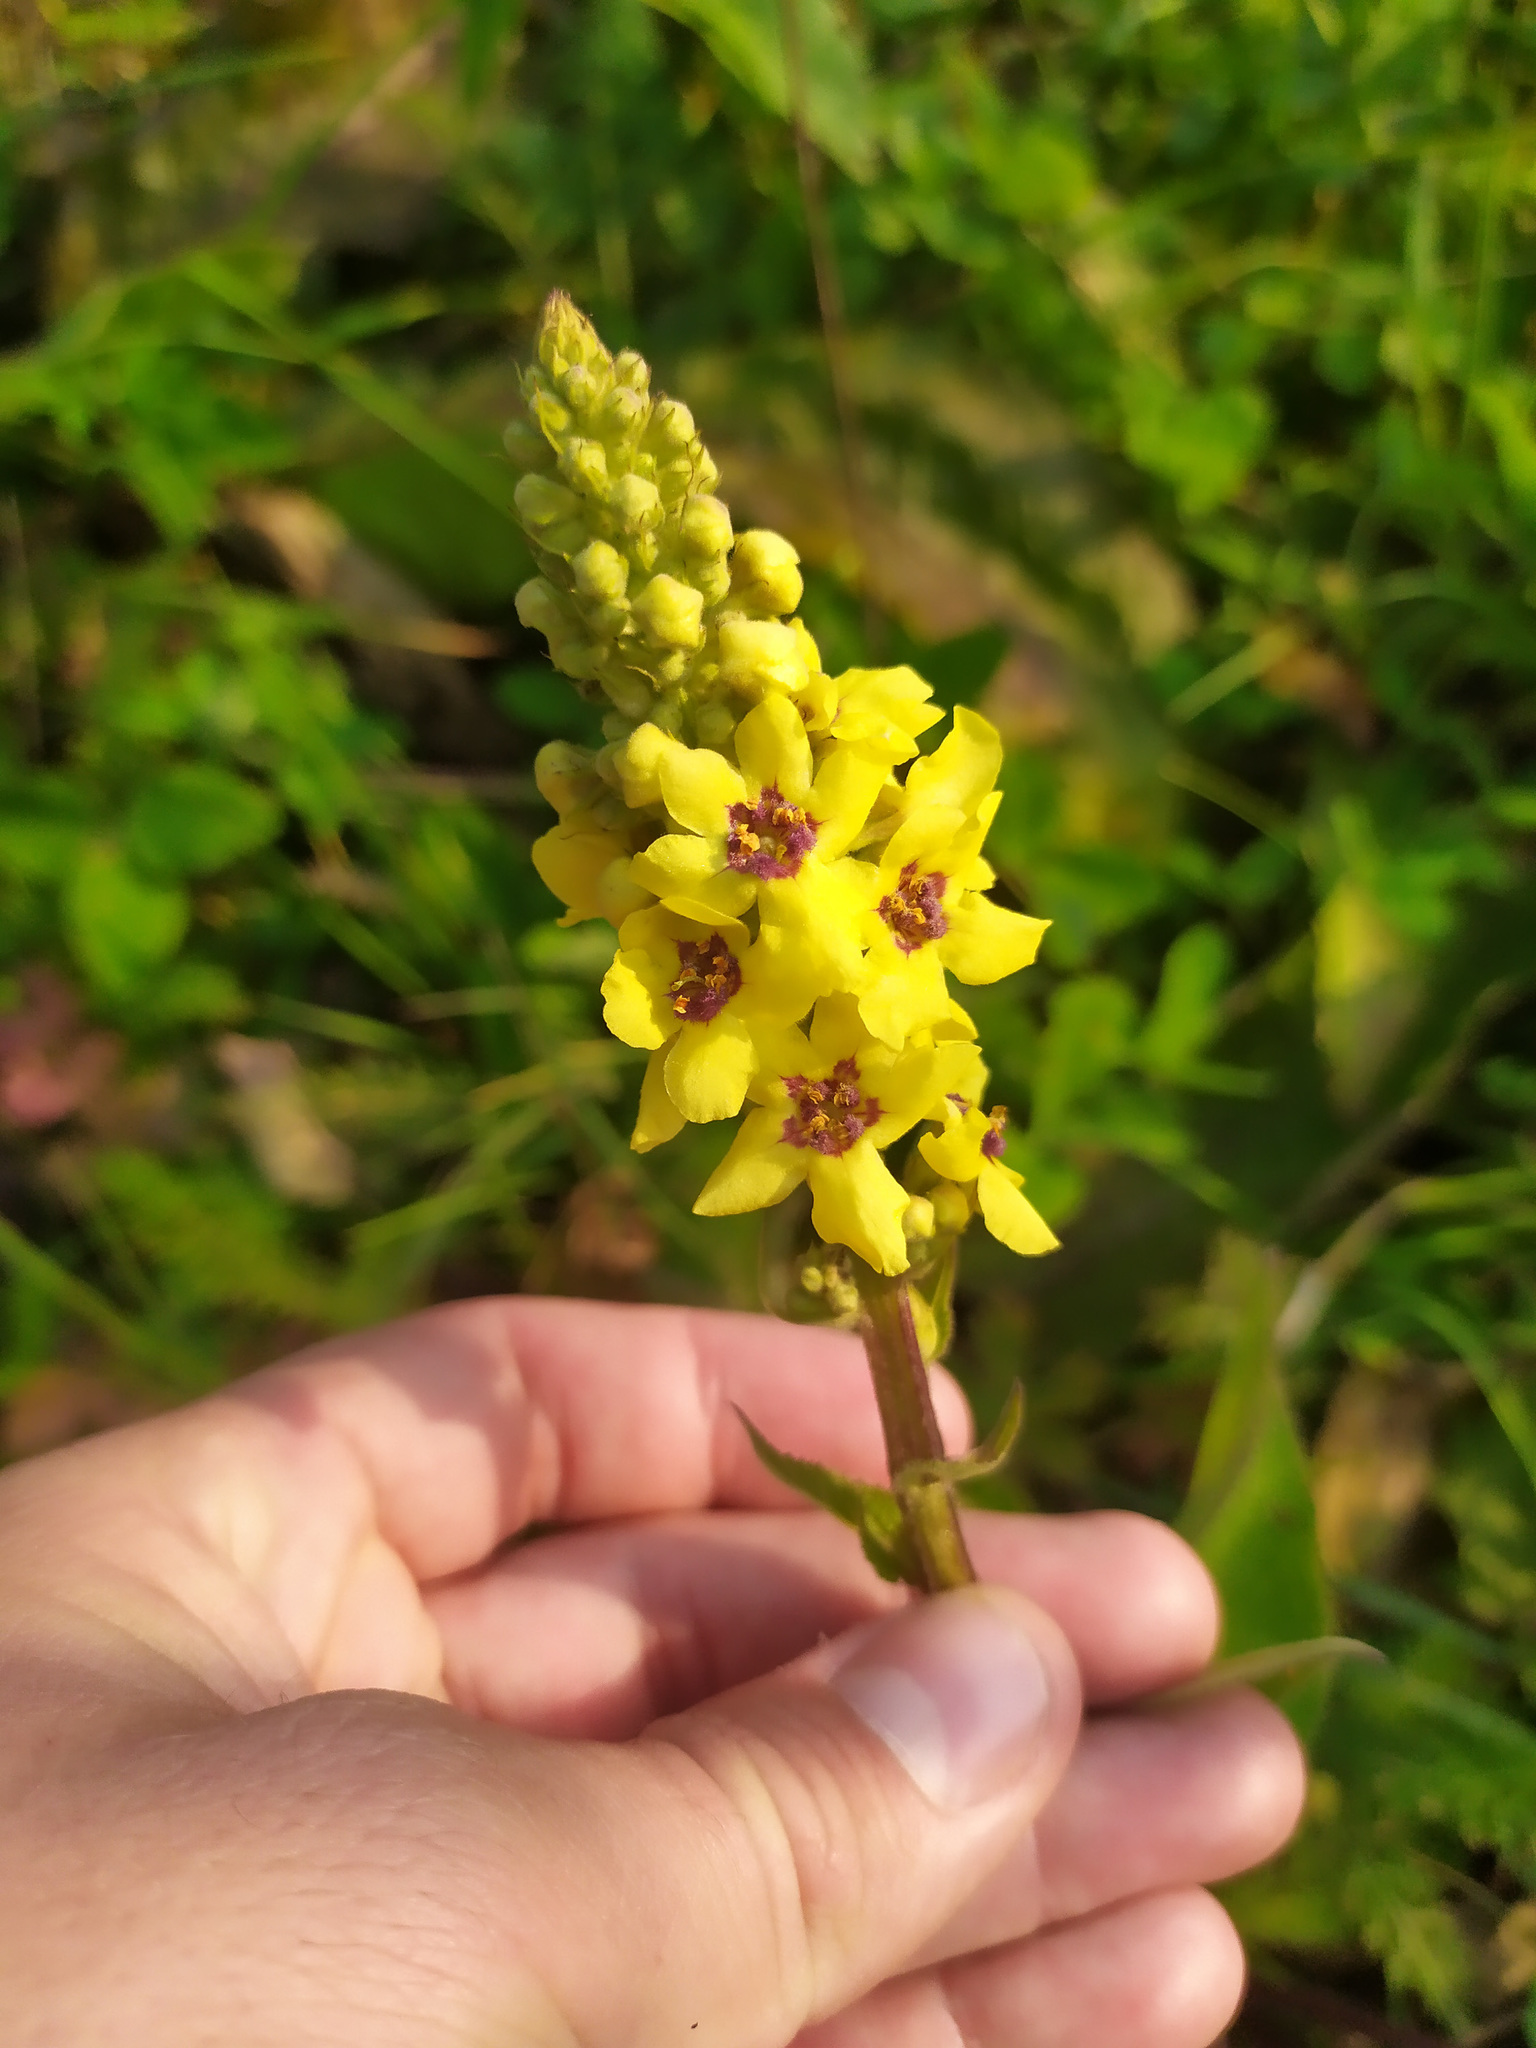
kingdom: Plantae
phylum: Tracheophyta
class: Magnoliopsida
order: Lamiales
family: Scrophulariaceae
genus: Verbascum
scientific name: Verbascum nigrum
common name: Dark mullein
